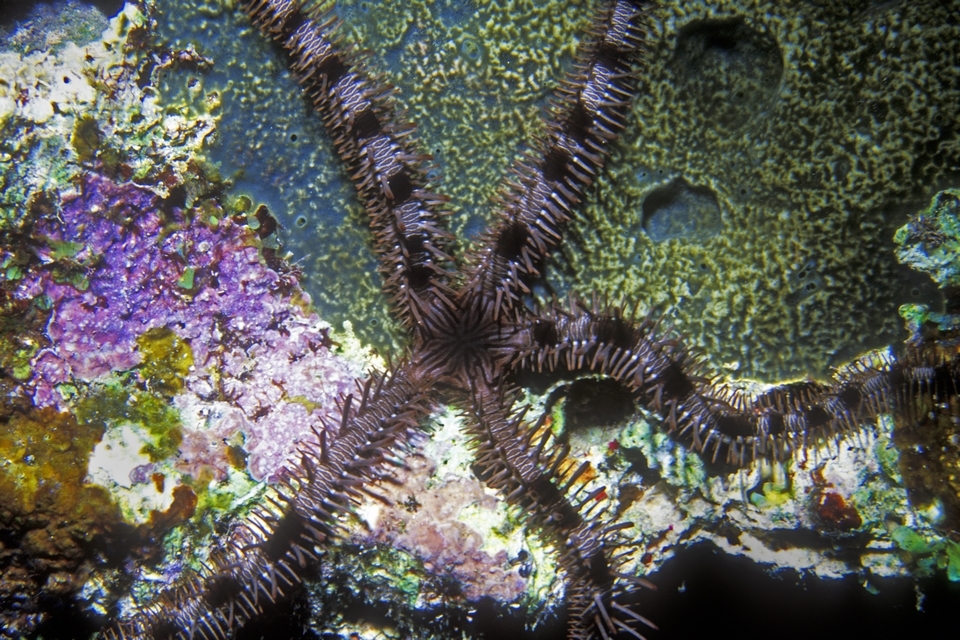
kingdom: Animalia
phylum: Echinodermata
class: Ophiuroidea
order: Ophiacanthida
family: Ophiocomidae
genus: Ophiocoma
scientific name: Ophiocoma echinata
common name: Spiny ophiocoma
